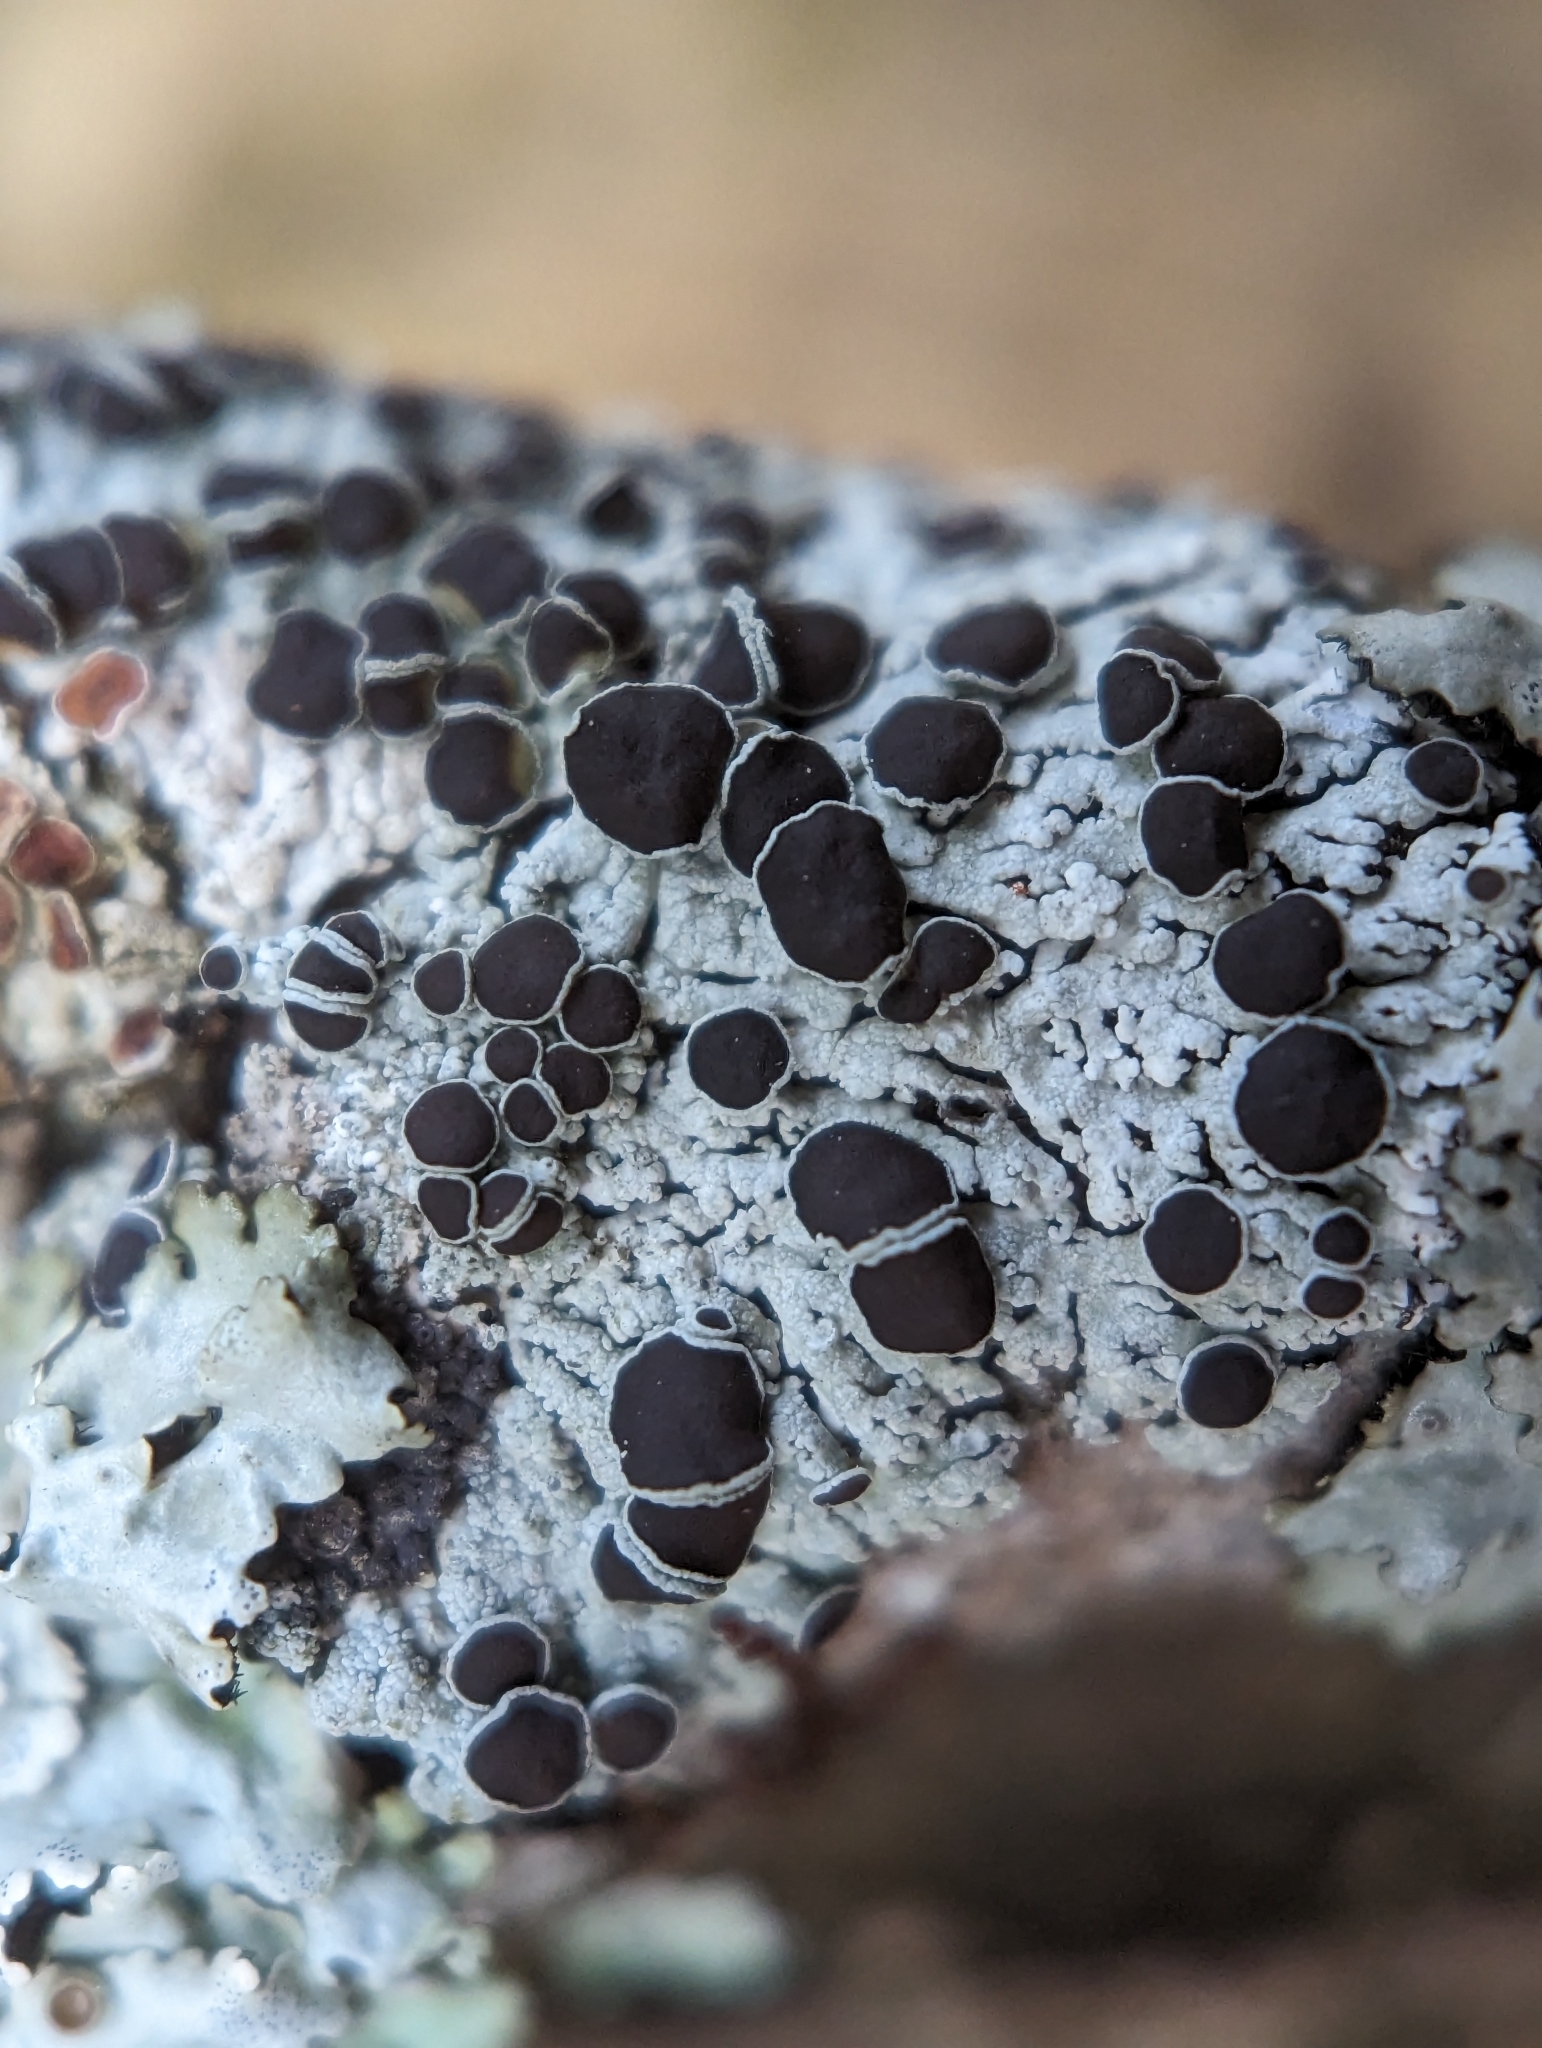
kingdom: Fungi
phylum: Ascomycota
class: Lecanoromycetes
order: Caliciales
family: Physciaceae
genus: Physcia
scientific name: Physcia pumilior
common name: Lesser gray legs
